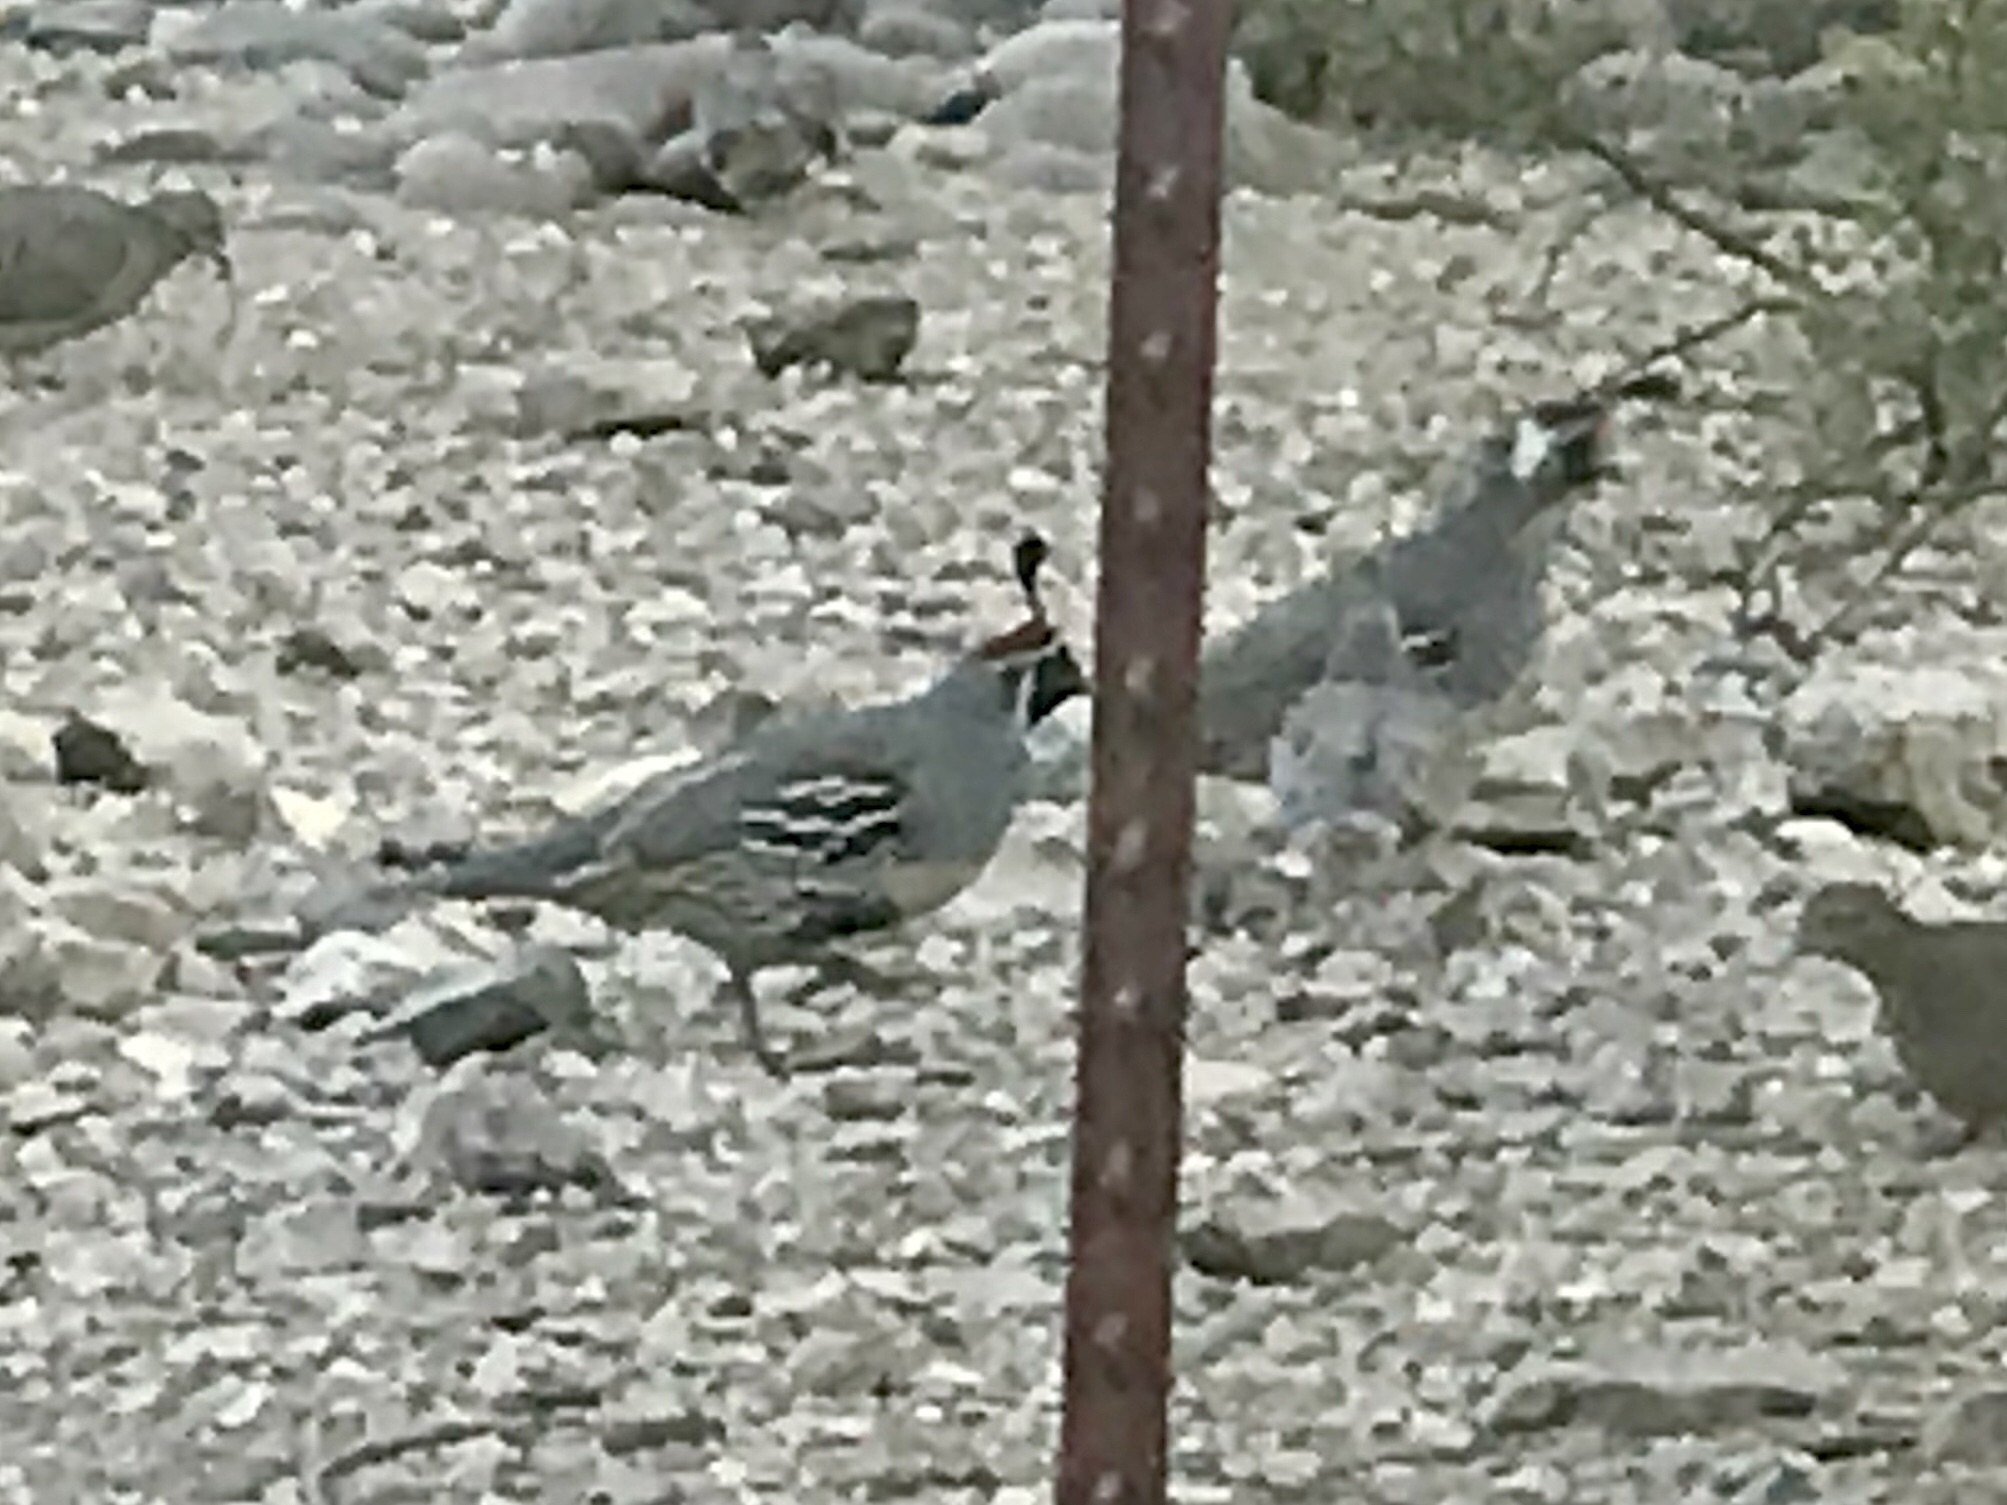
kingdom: Animalia
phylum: Chordata
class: Aves
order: Galliformes
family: Odontophoridae
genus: Callipepla
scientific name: Callipepla gambelii
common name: Gambel's quail
